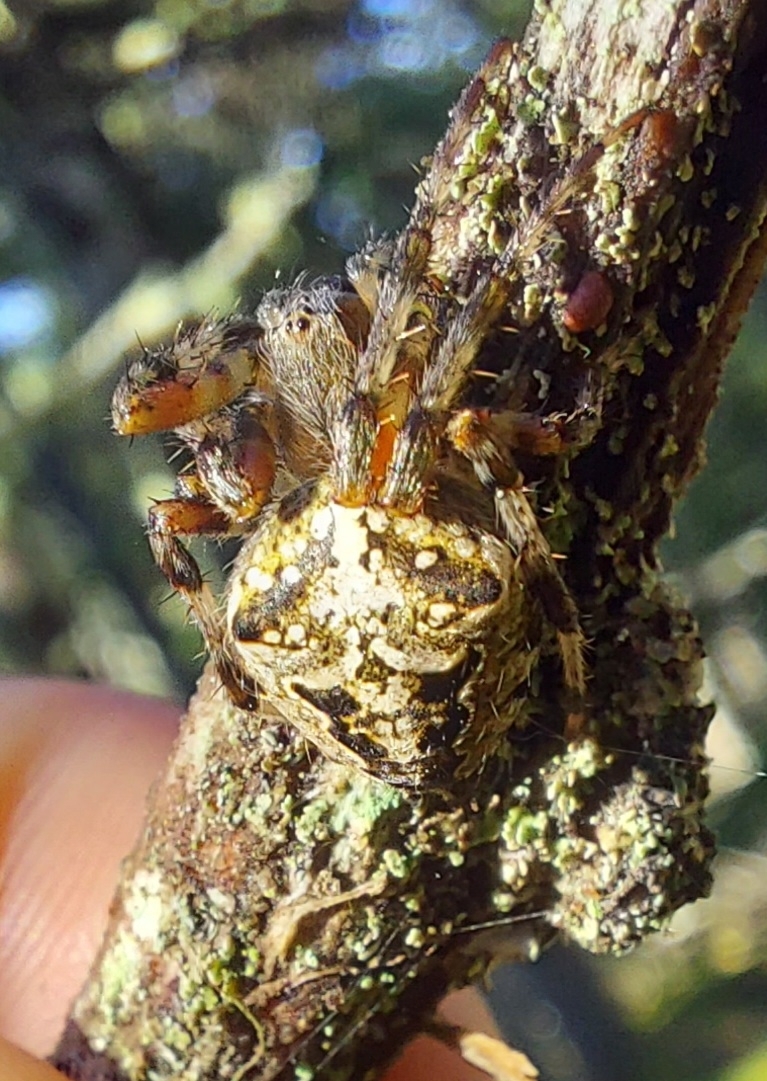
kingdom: Animalia
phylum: Arthropoda
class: Arachnida
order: Araneae
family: Araneidae
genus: Araneus
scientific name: Araneus nordmanni
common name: Nordmann's orbweaver
